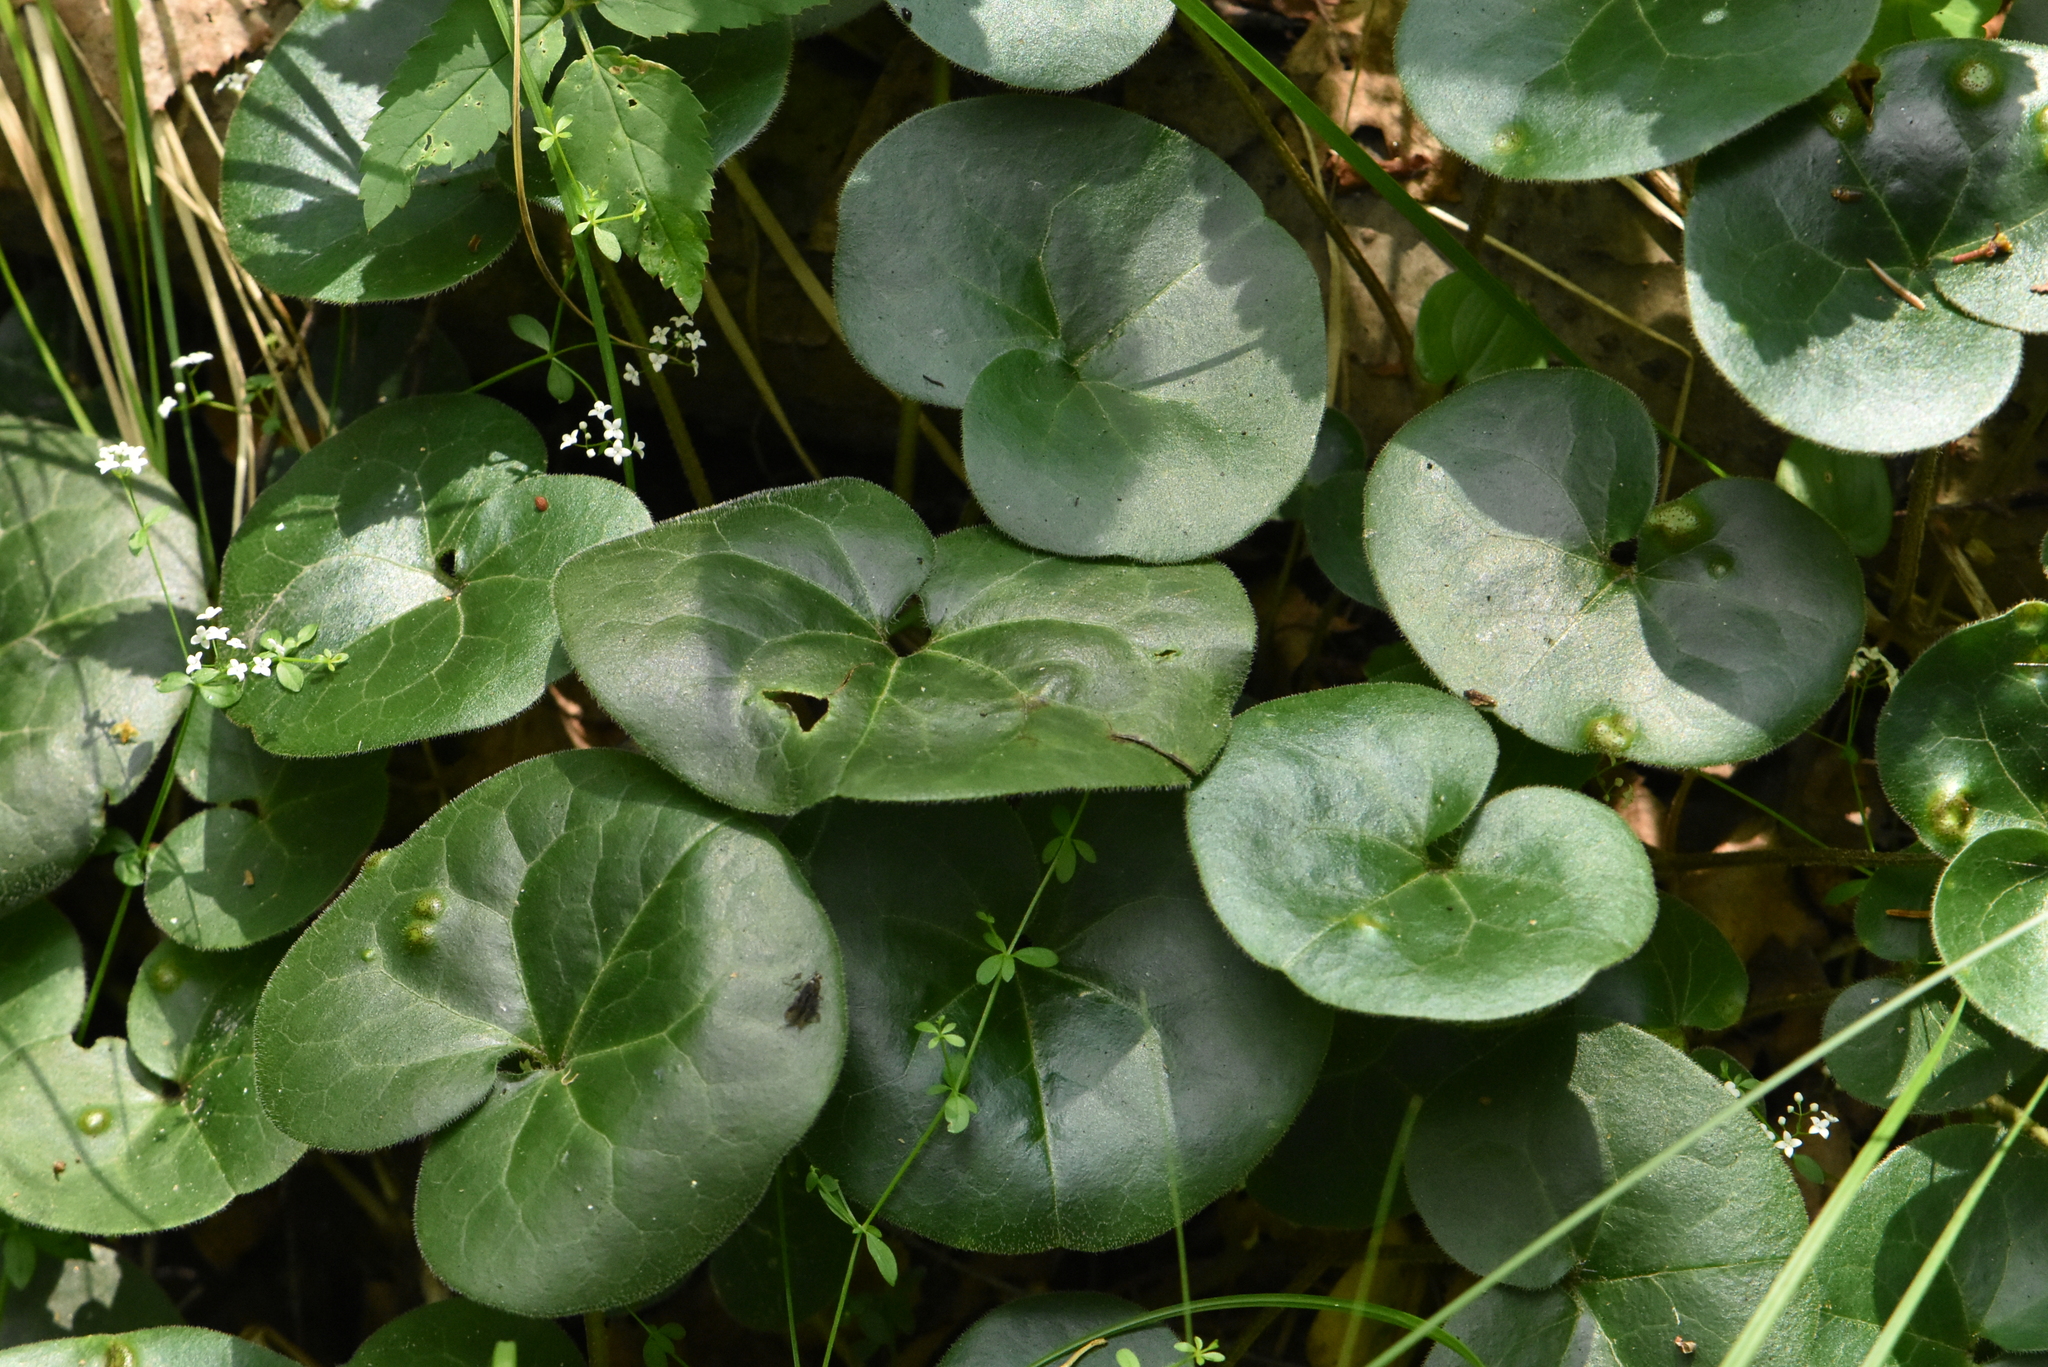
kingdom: Plantae
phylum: Tracheophyta
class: Magnoliopsida
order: Piperales
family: Aristolochiaceae
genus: Asarum
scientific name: Asarum europaeum
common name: Asarabacca
